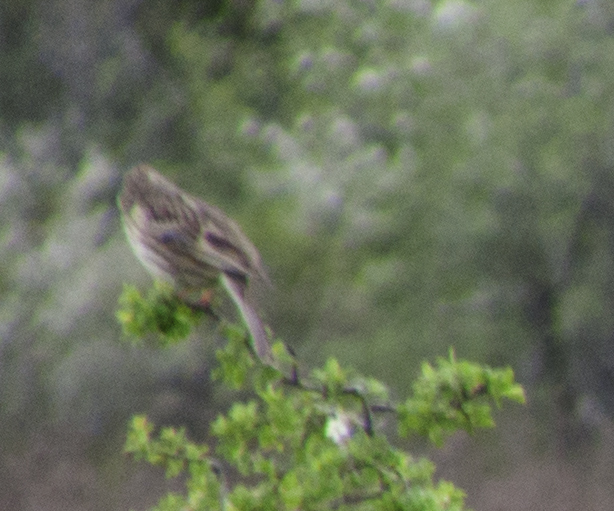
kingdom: Animalia
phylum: Chordata
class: Aves
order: Passeriformes
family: Emberizidae
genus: Emberiza
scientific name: Emberiza calandra
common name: Corn bunting
